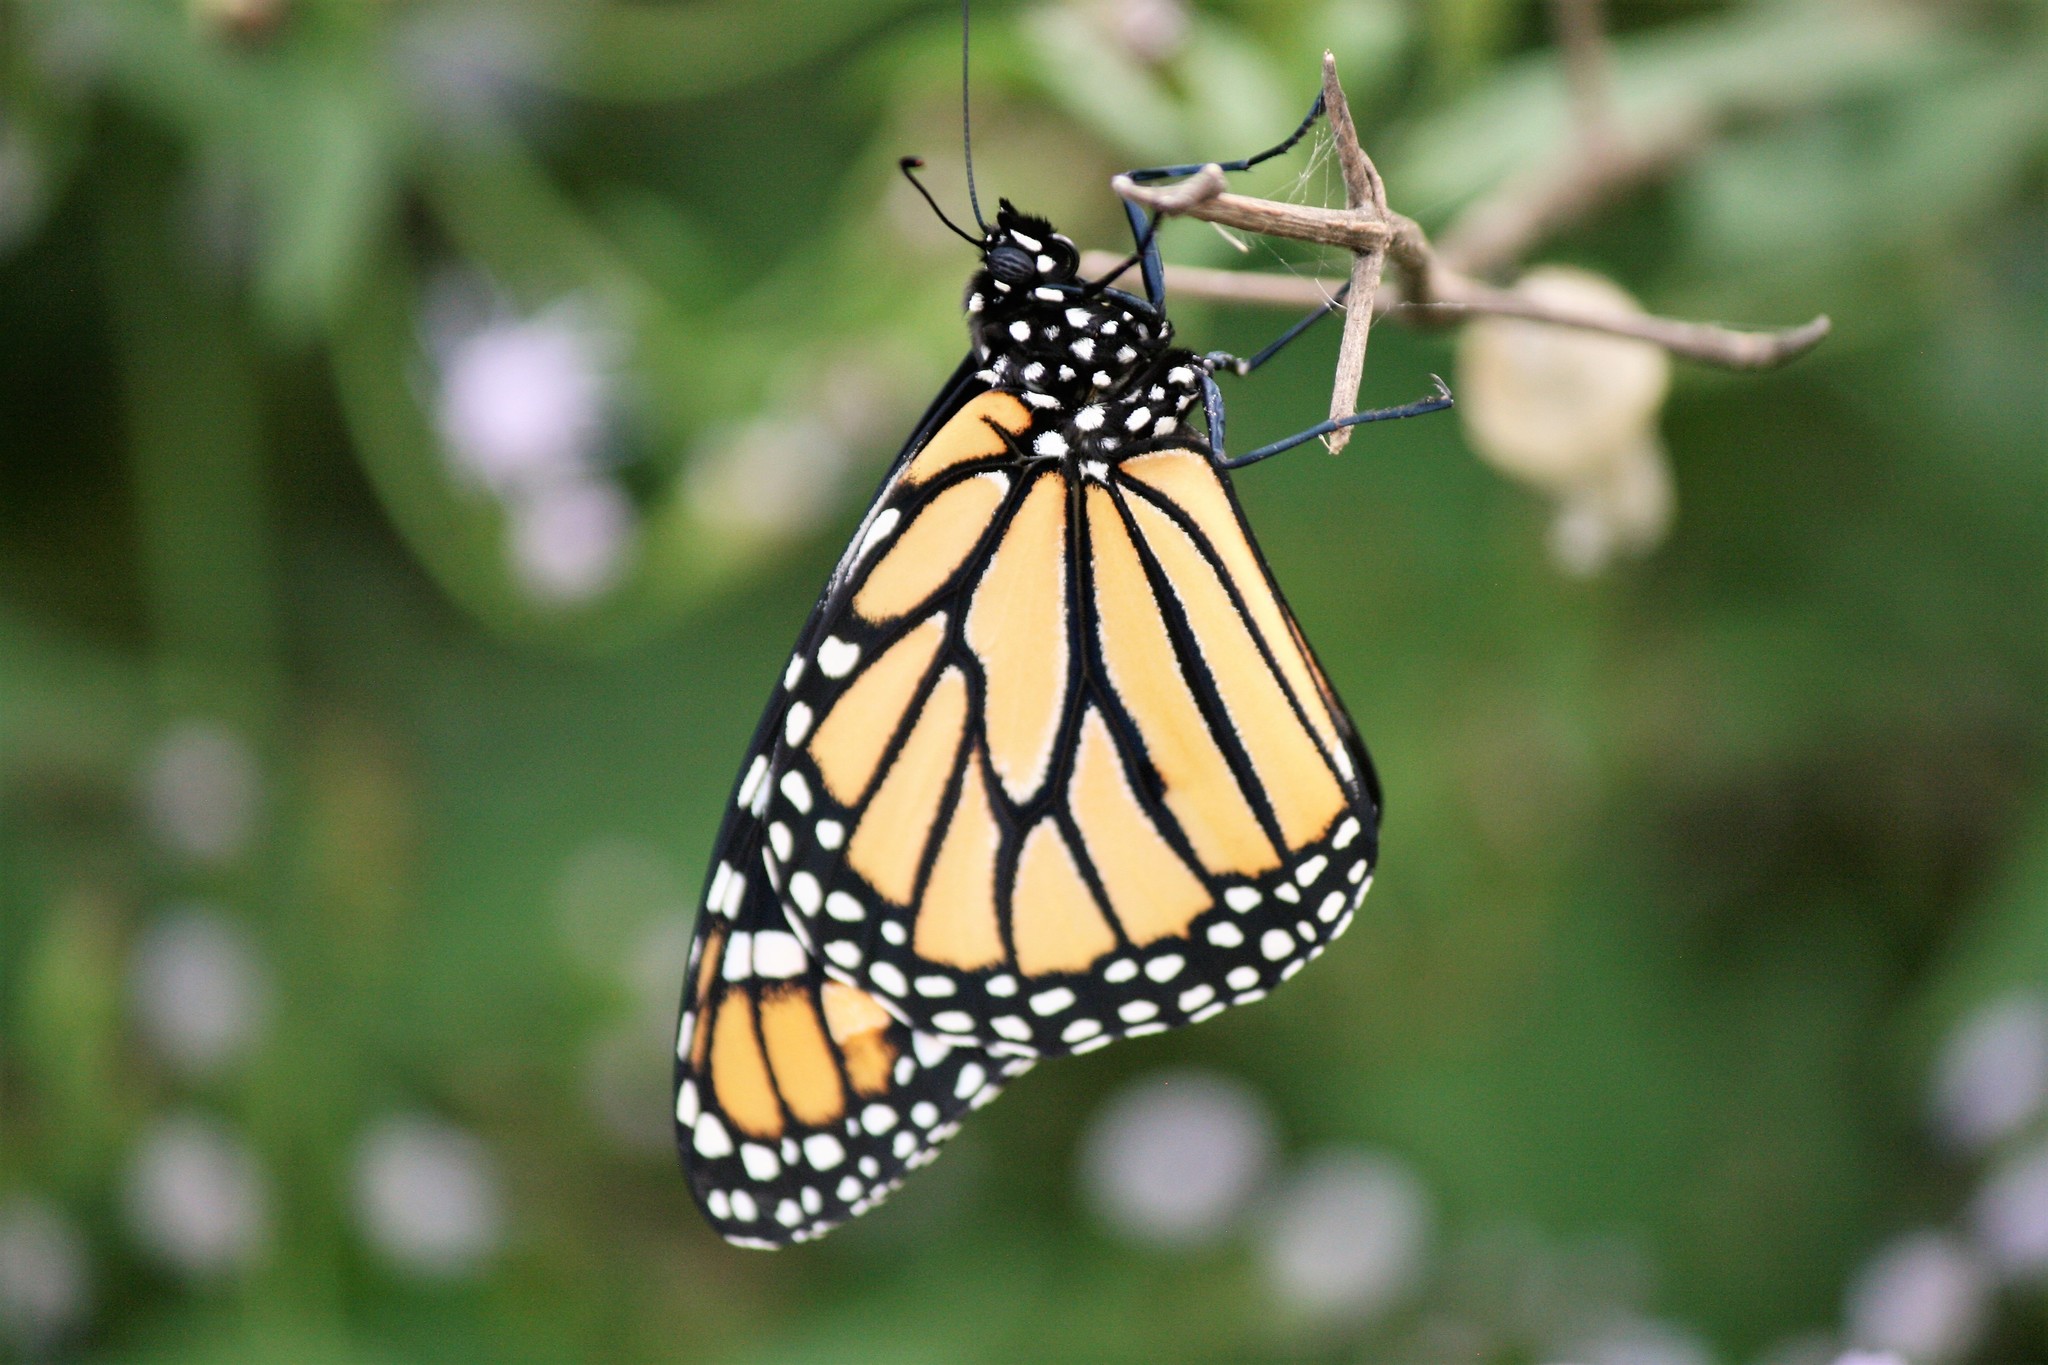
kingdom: Animalia
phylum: Arthropoda
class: Insecta
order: Lepidoptera
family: Nymphalidae
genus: Danaus
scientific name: Danaus plexippus
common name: Monarch
